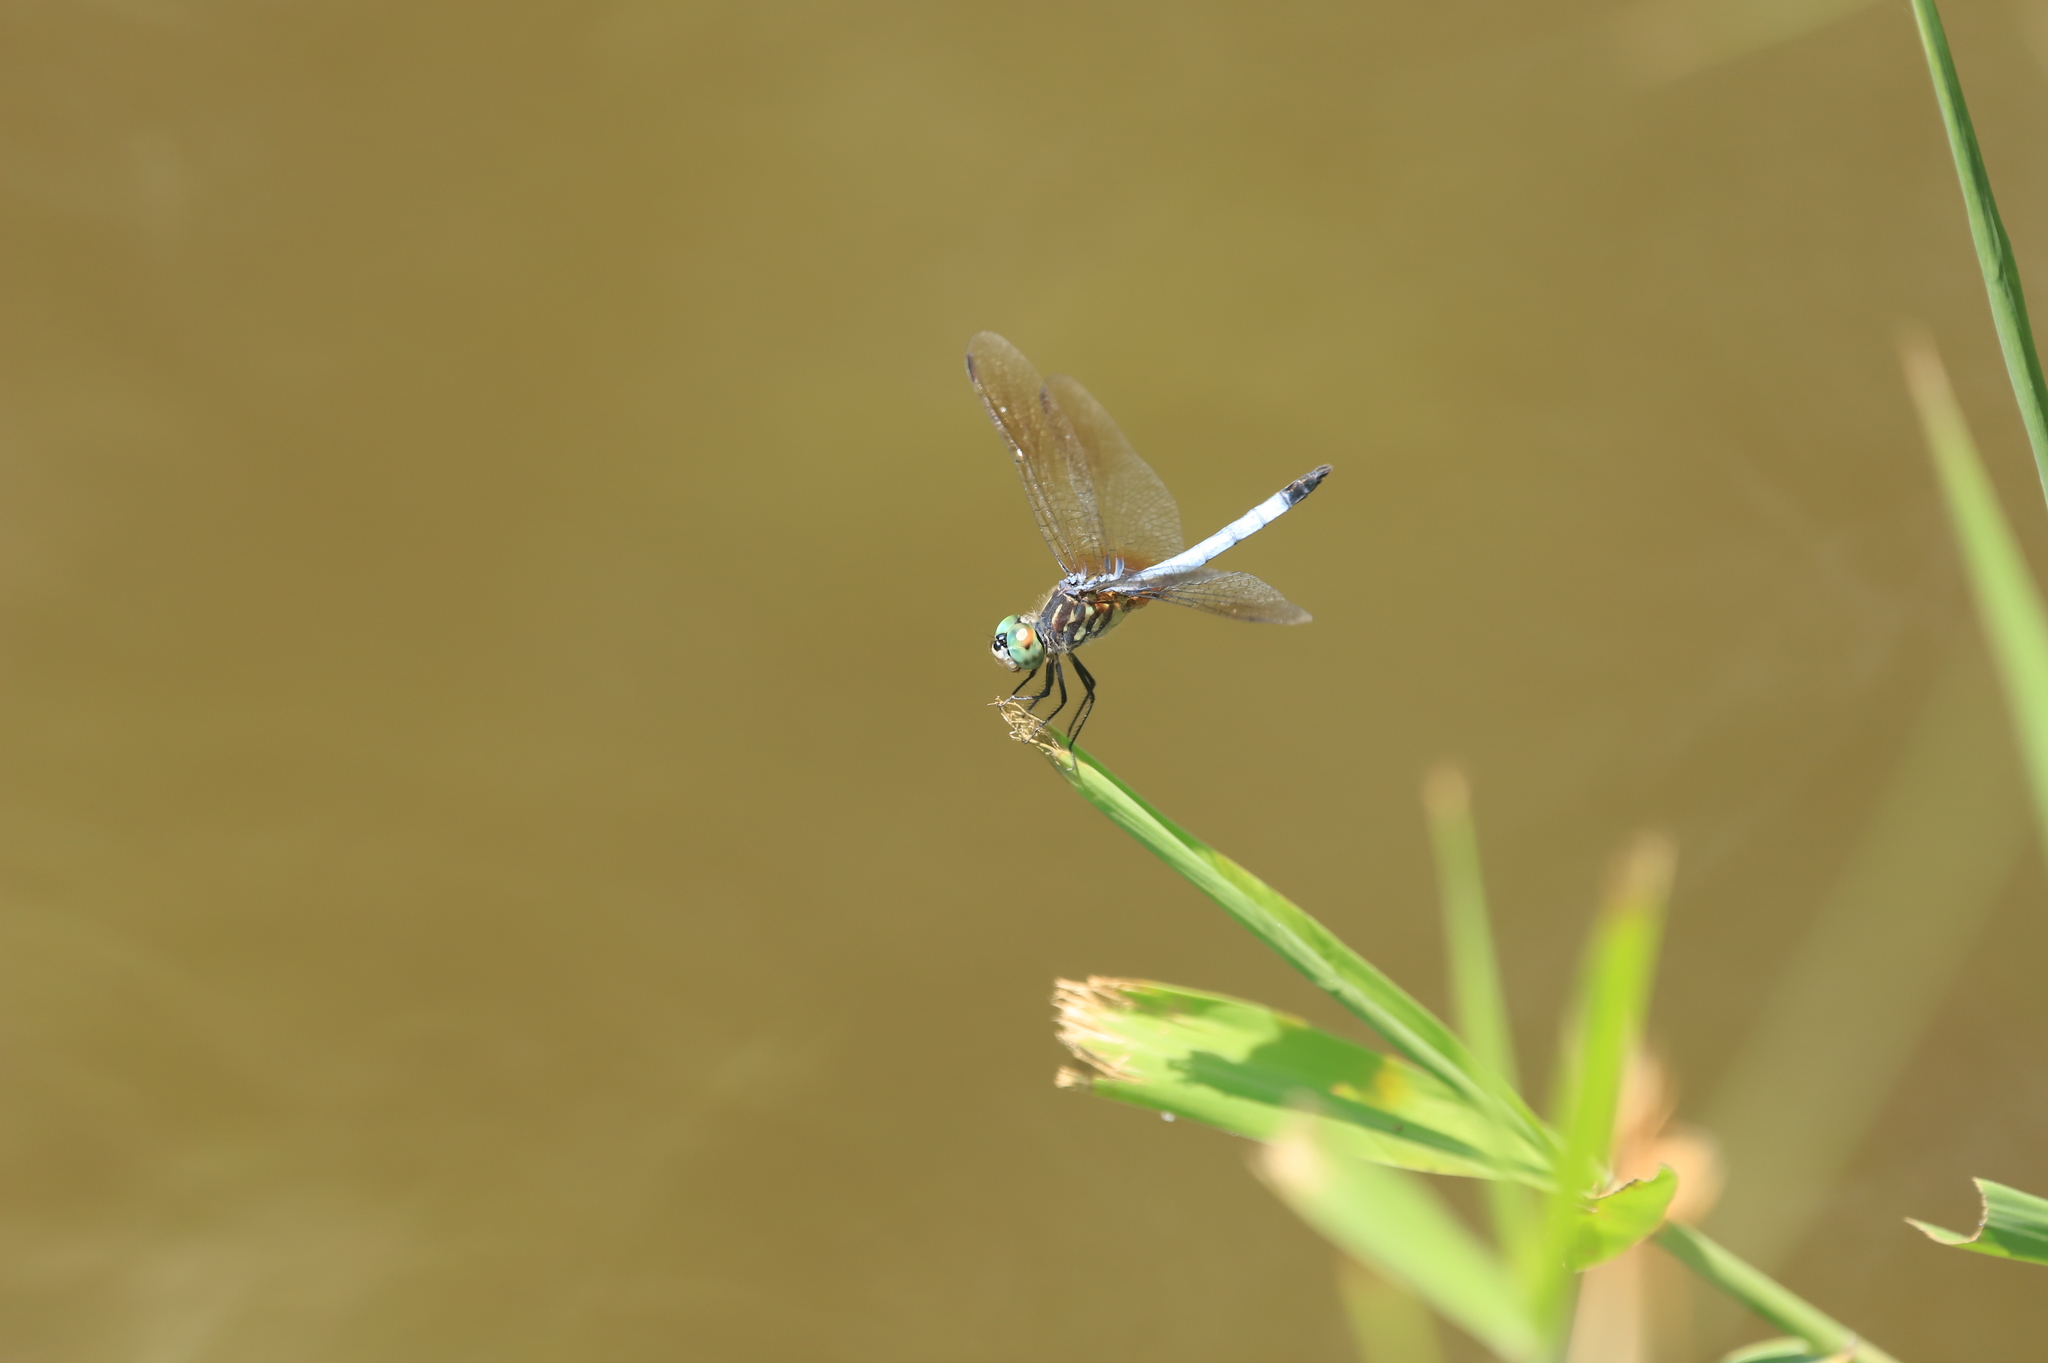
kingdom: Animalia
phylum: Arthropoda
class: Insecta
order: Odonata
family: Libellulidae
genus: Pachydiplax
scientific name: Pachydiplax longipennis
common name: Blue dasher
